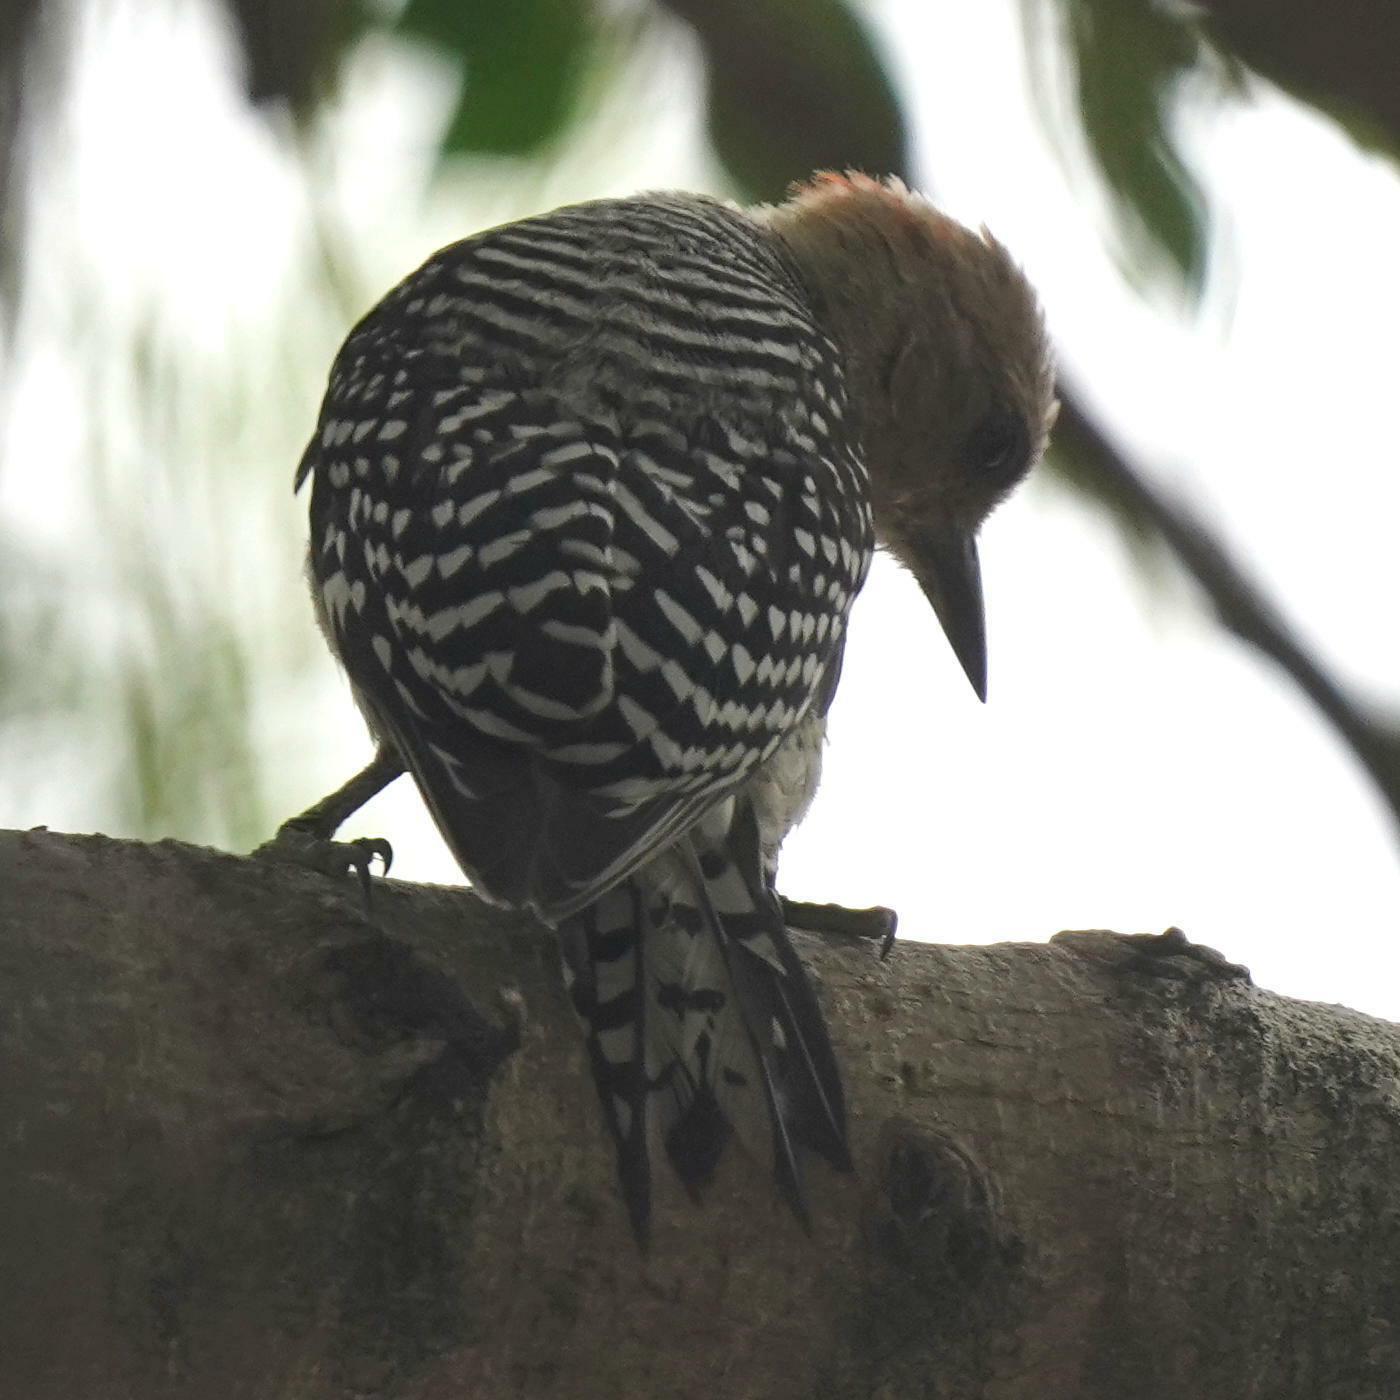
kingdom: Animalia
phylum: Chordata
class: Aves
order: Piciformes
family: Picidae
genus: Melanerpes
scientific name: Melanerpes rubricapillus
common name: Red-crowned woodpecker
